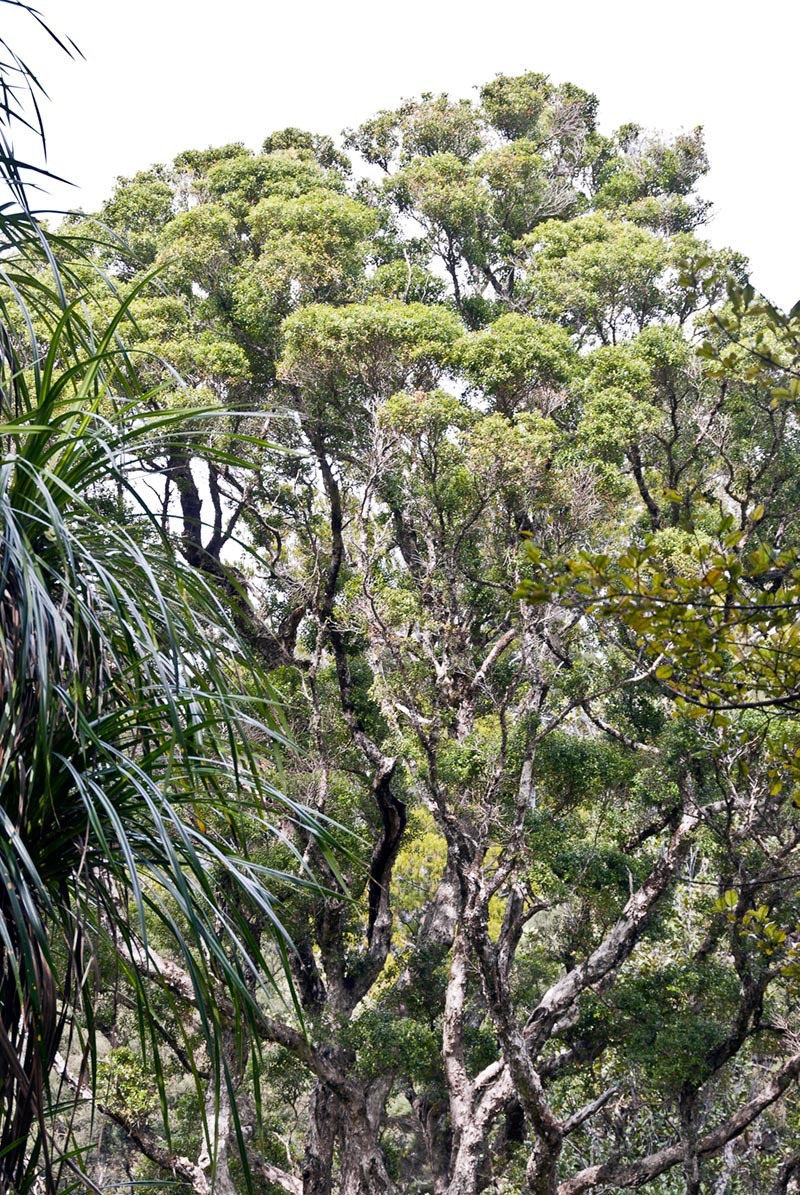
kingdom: Plantae
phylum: Tracheophyta
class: Magnoliopsida
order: Myrtales
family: Myrtaceae
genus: Metrosideros
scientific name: Metrosideros bartlettii
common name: Bartlett's rata
